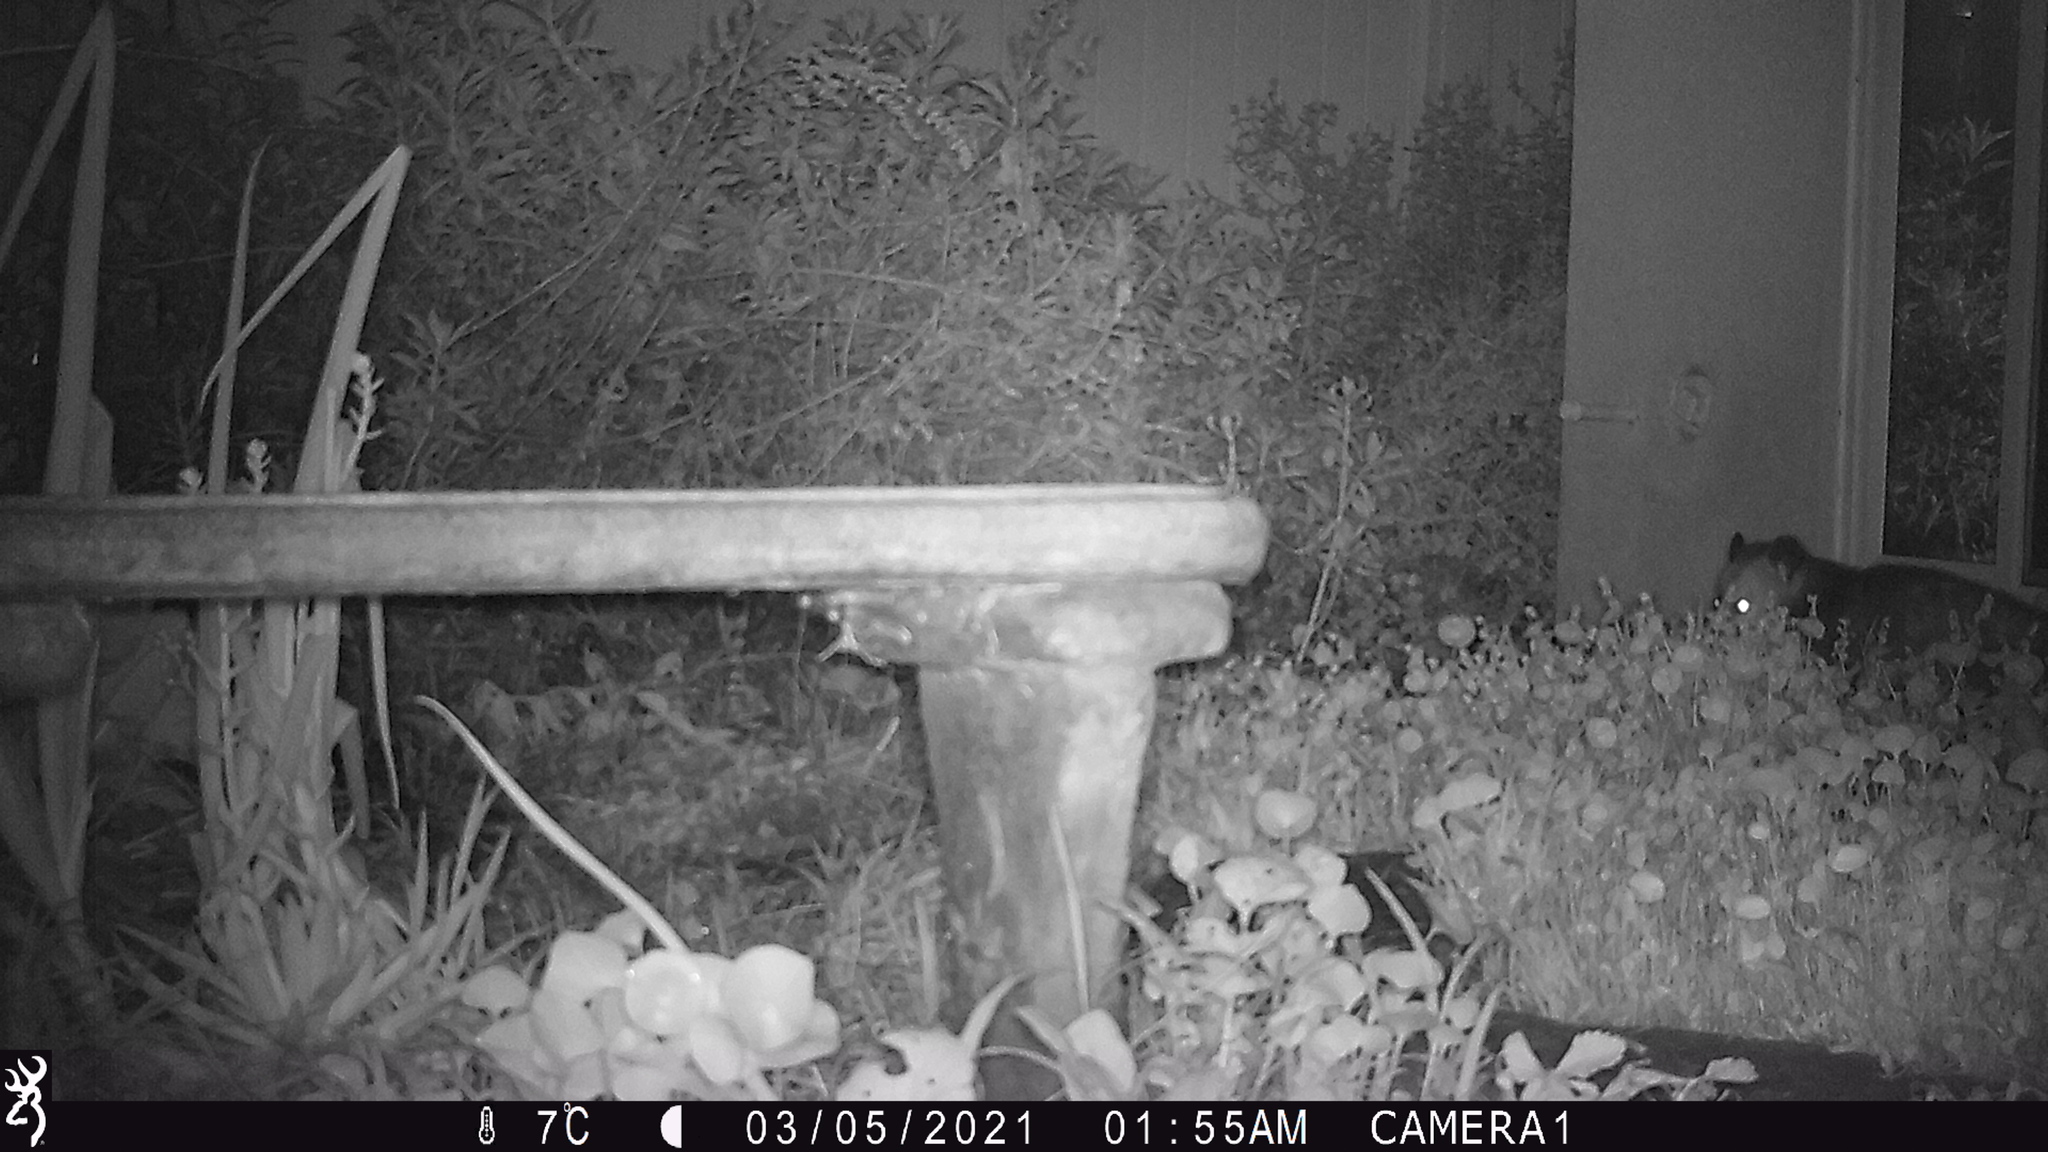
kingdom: Animalia
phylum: Chordata
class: Mammalia
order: Didelphimorphia
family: Didelphidae
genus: Didelphis
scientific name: Didelphis virginiana
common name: Virginia opossum
